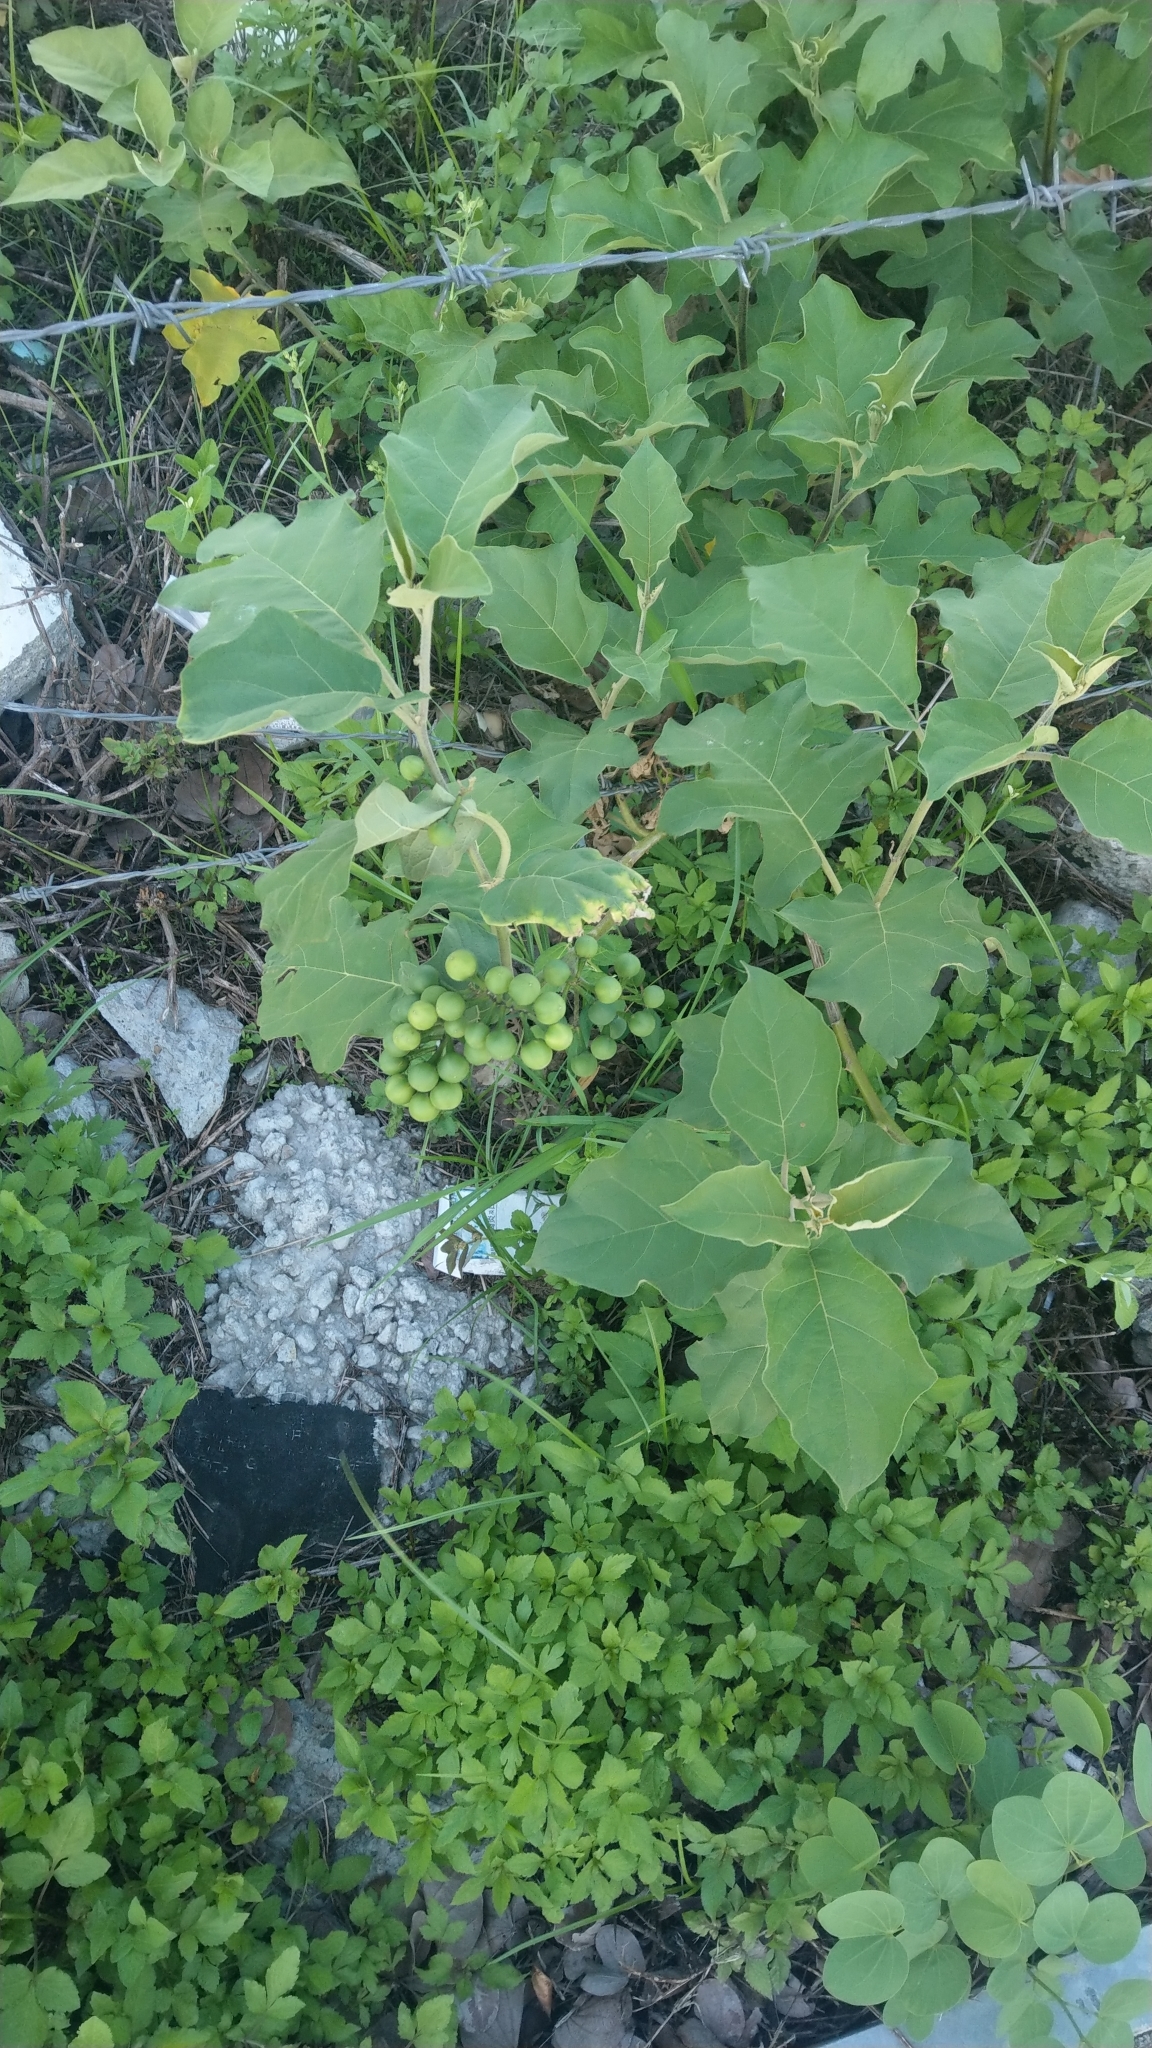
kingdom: Plantae
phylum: Tracheophyta
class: Magnoliopsida
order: Solanales
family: Solanaceae
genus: Solanum
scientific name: Solanum torvum
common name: Turkey berry
